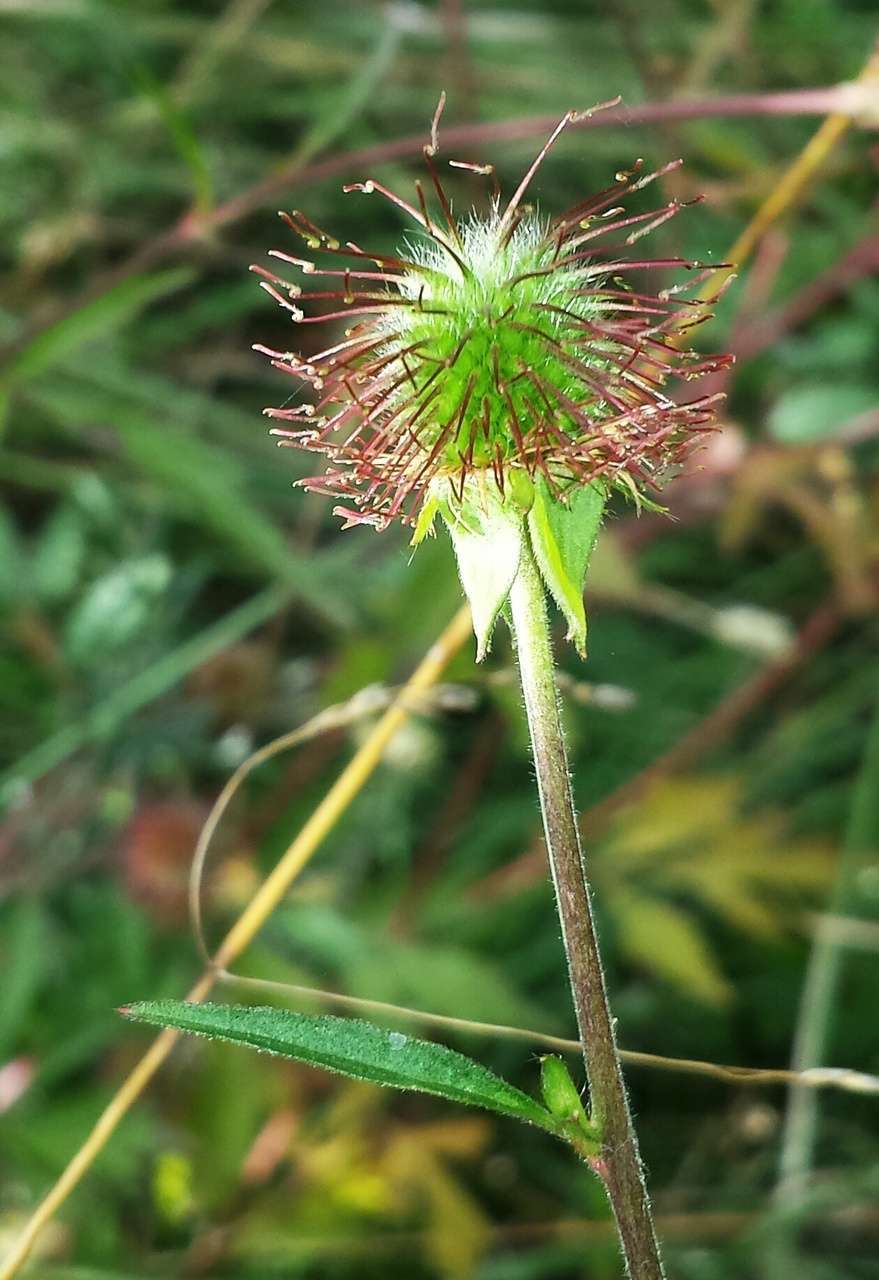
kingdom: Plantae
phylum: Tracheophyta
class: Magnoliopsida
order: Rosales
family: Rosaceae
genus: Geum
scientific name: Geum urbanum
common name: Wood avens
